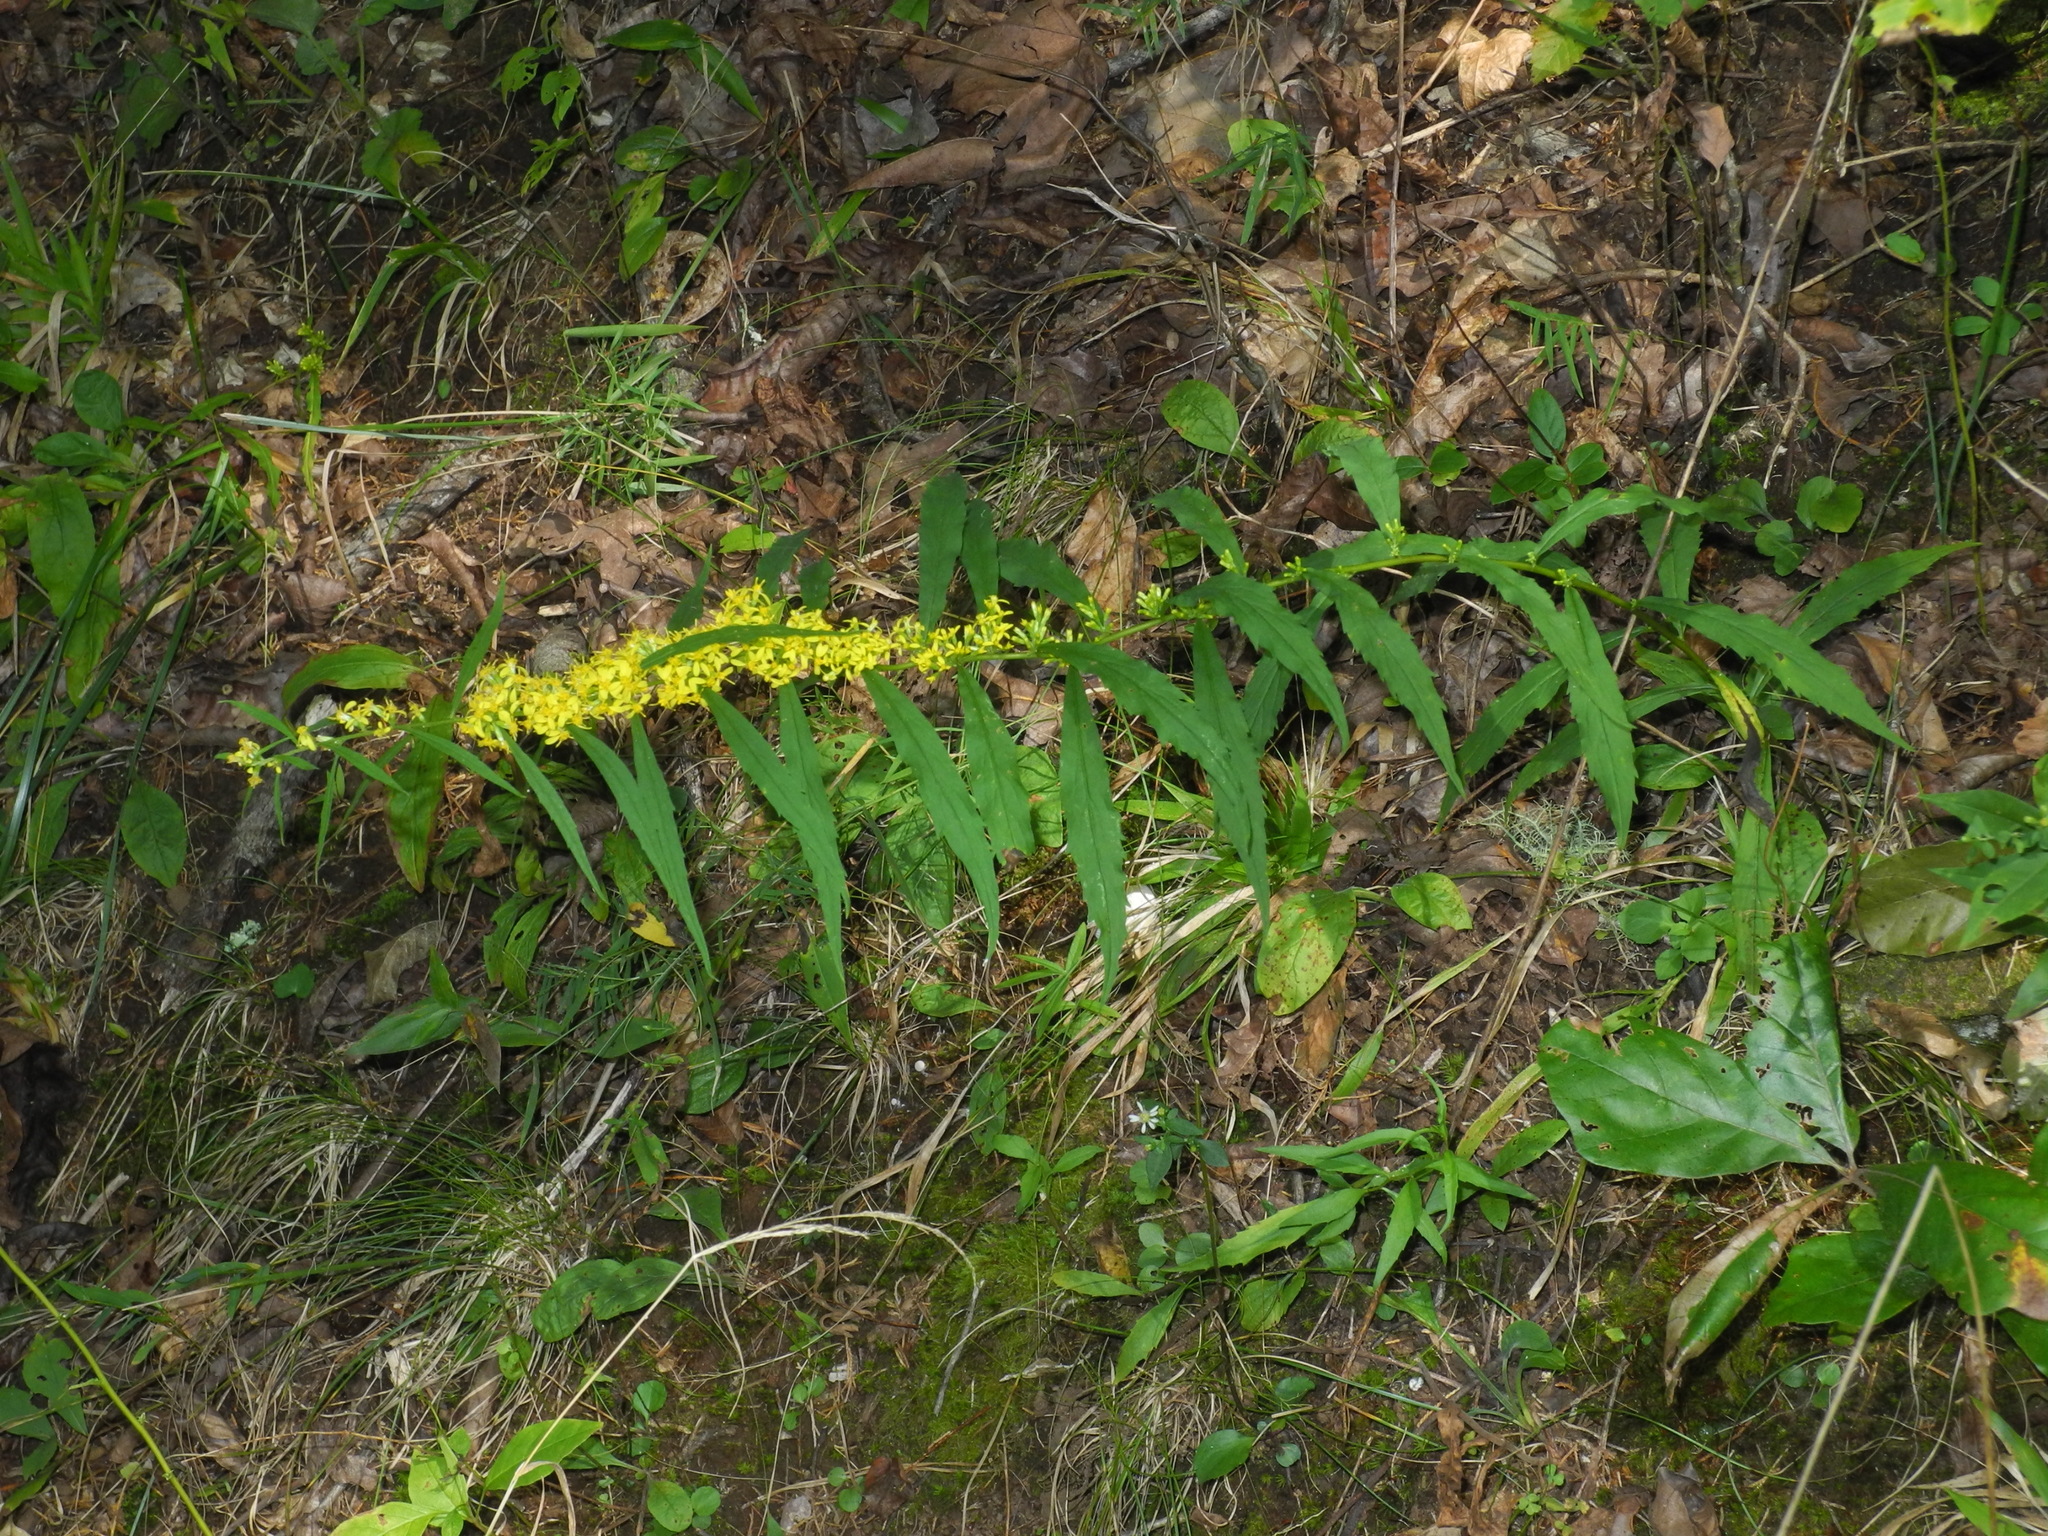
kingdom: Plantae
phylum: Tracheophyta
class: Magnoliopsida
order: Asterales
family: Asteraceae
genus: Solidago
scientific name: Solidago caesia
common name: Woodland goldenrod
